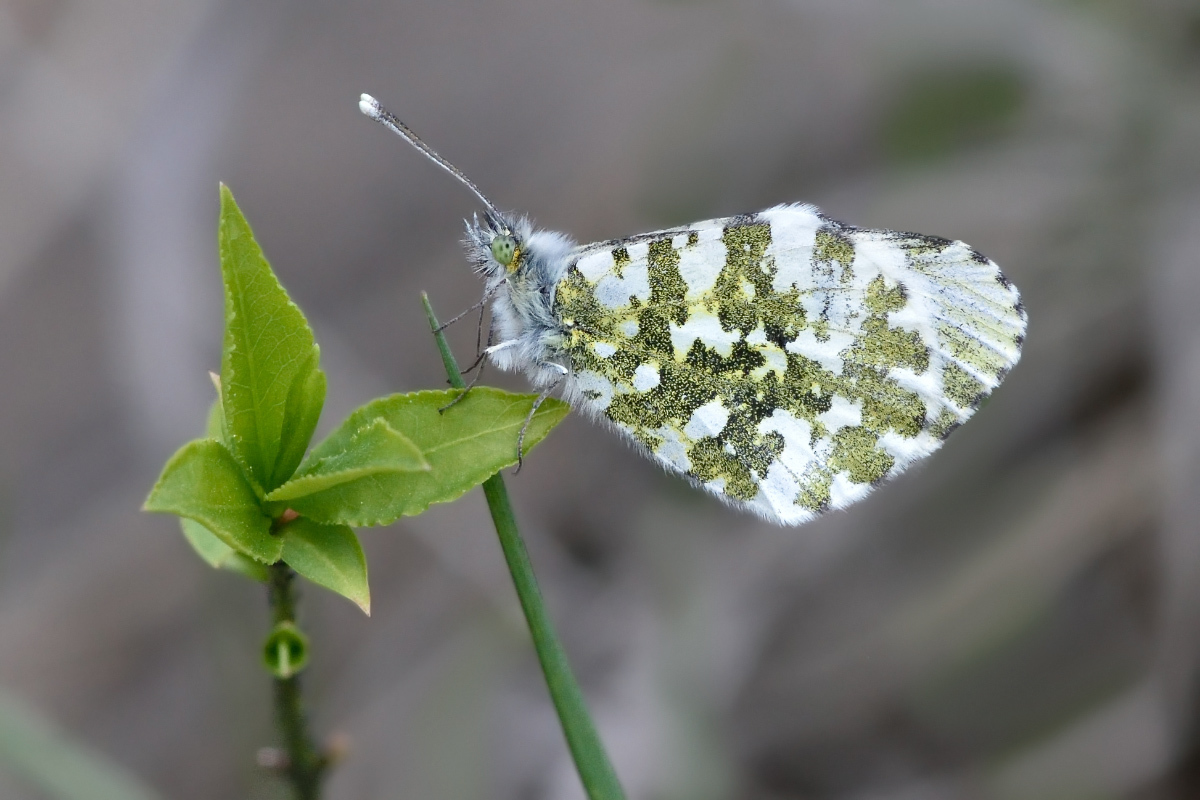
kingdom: Animalia
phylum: Arthropoda
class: Insecta
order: Lepidoptera
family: Pieridae
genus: Anthocharis
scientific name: Anthocharis cardamines
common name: Orange-tip
